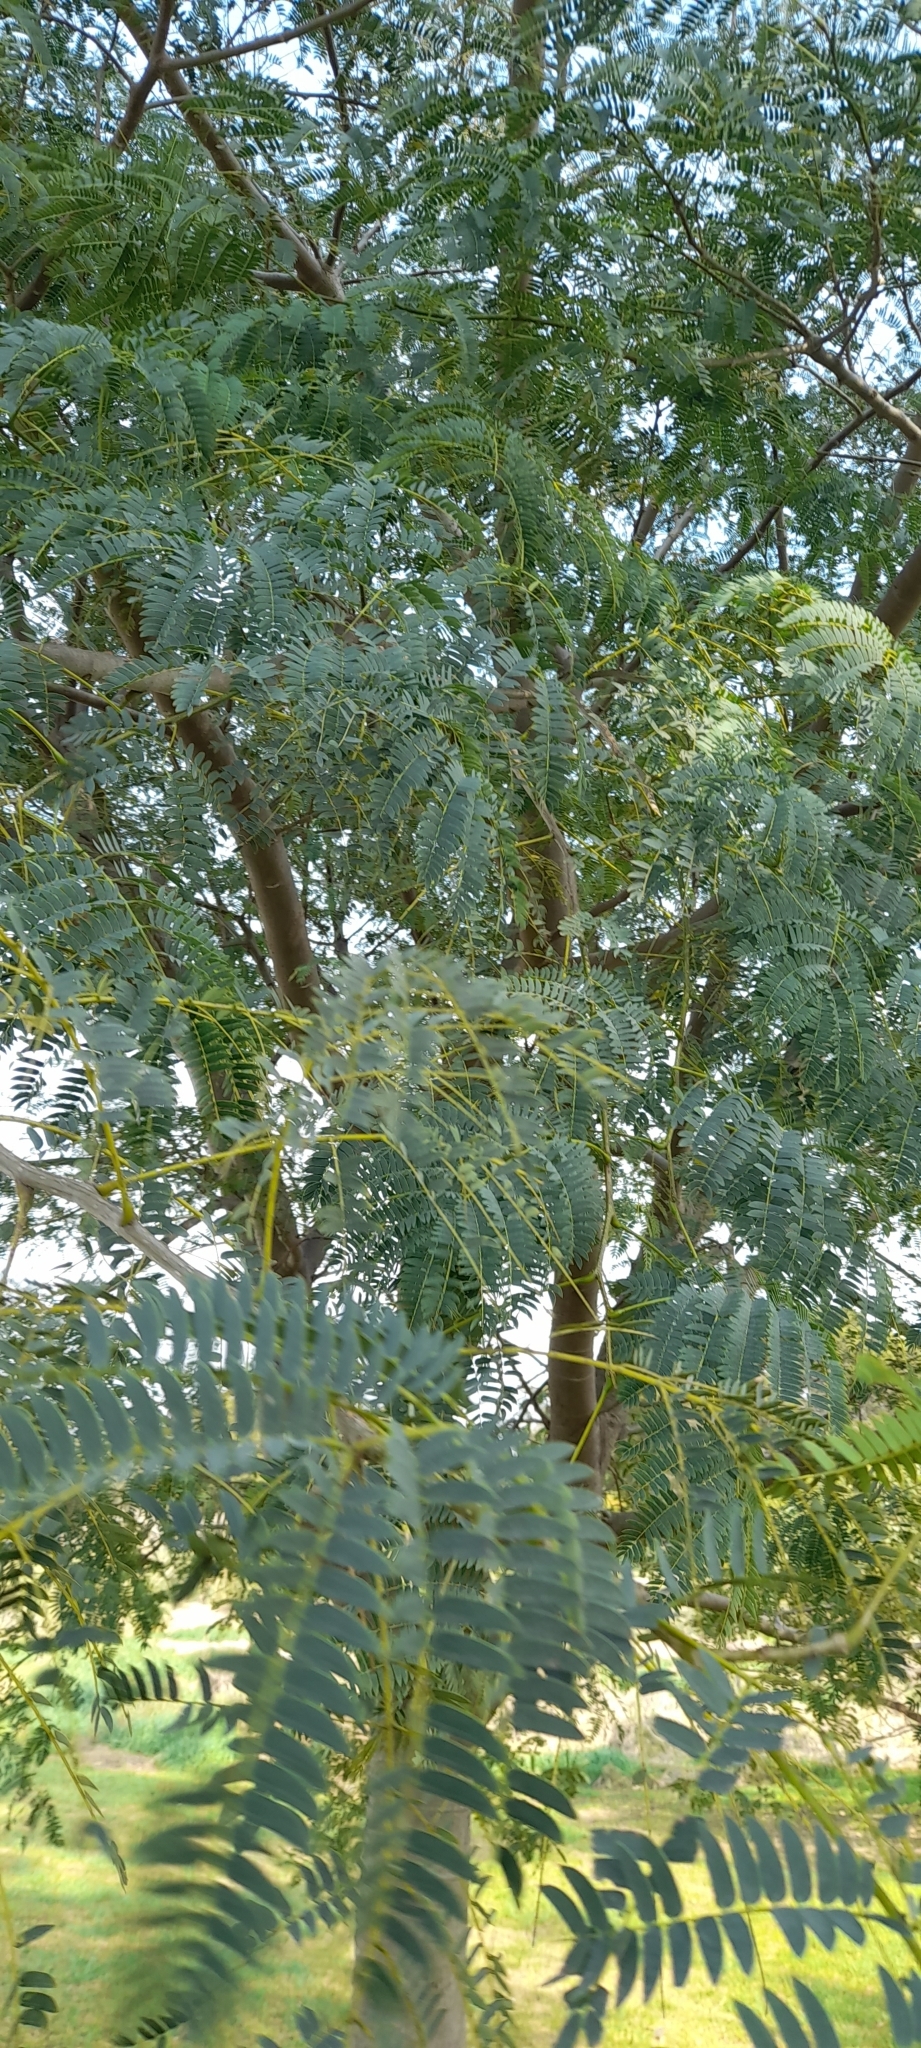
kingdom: Plantae
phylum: Tracheophyta
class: Magnoliopsida
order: Fabales
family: Fabaceae
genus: Enterolobium
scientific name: Enterolobium contortisiliquum
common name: Pacara earpod tree
